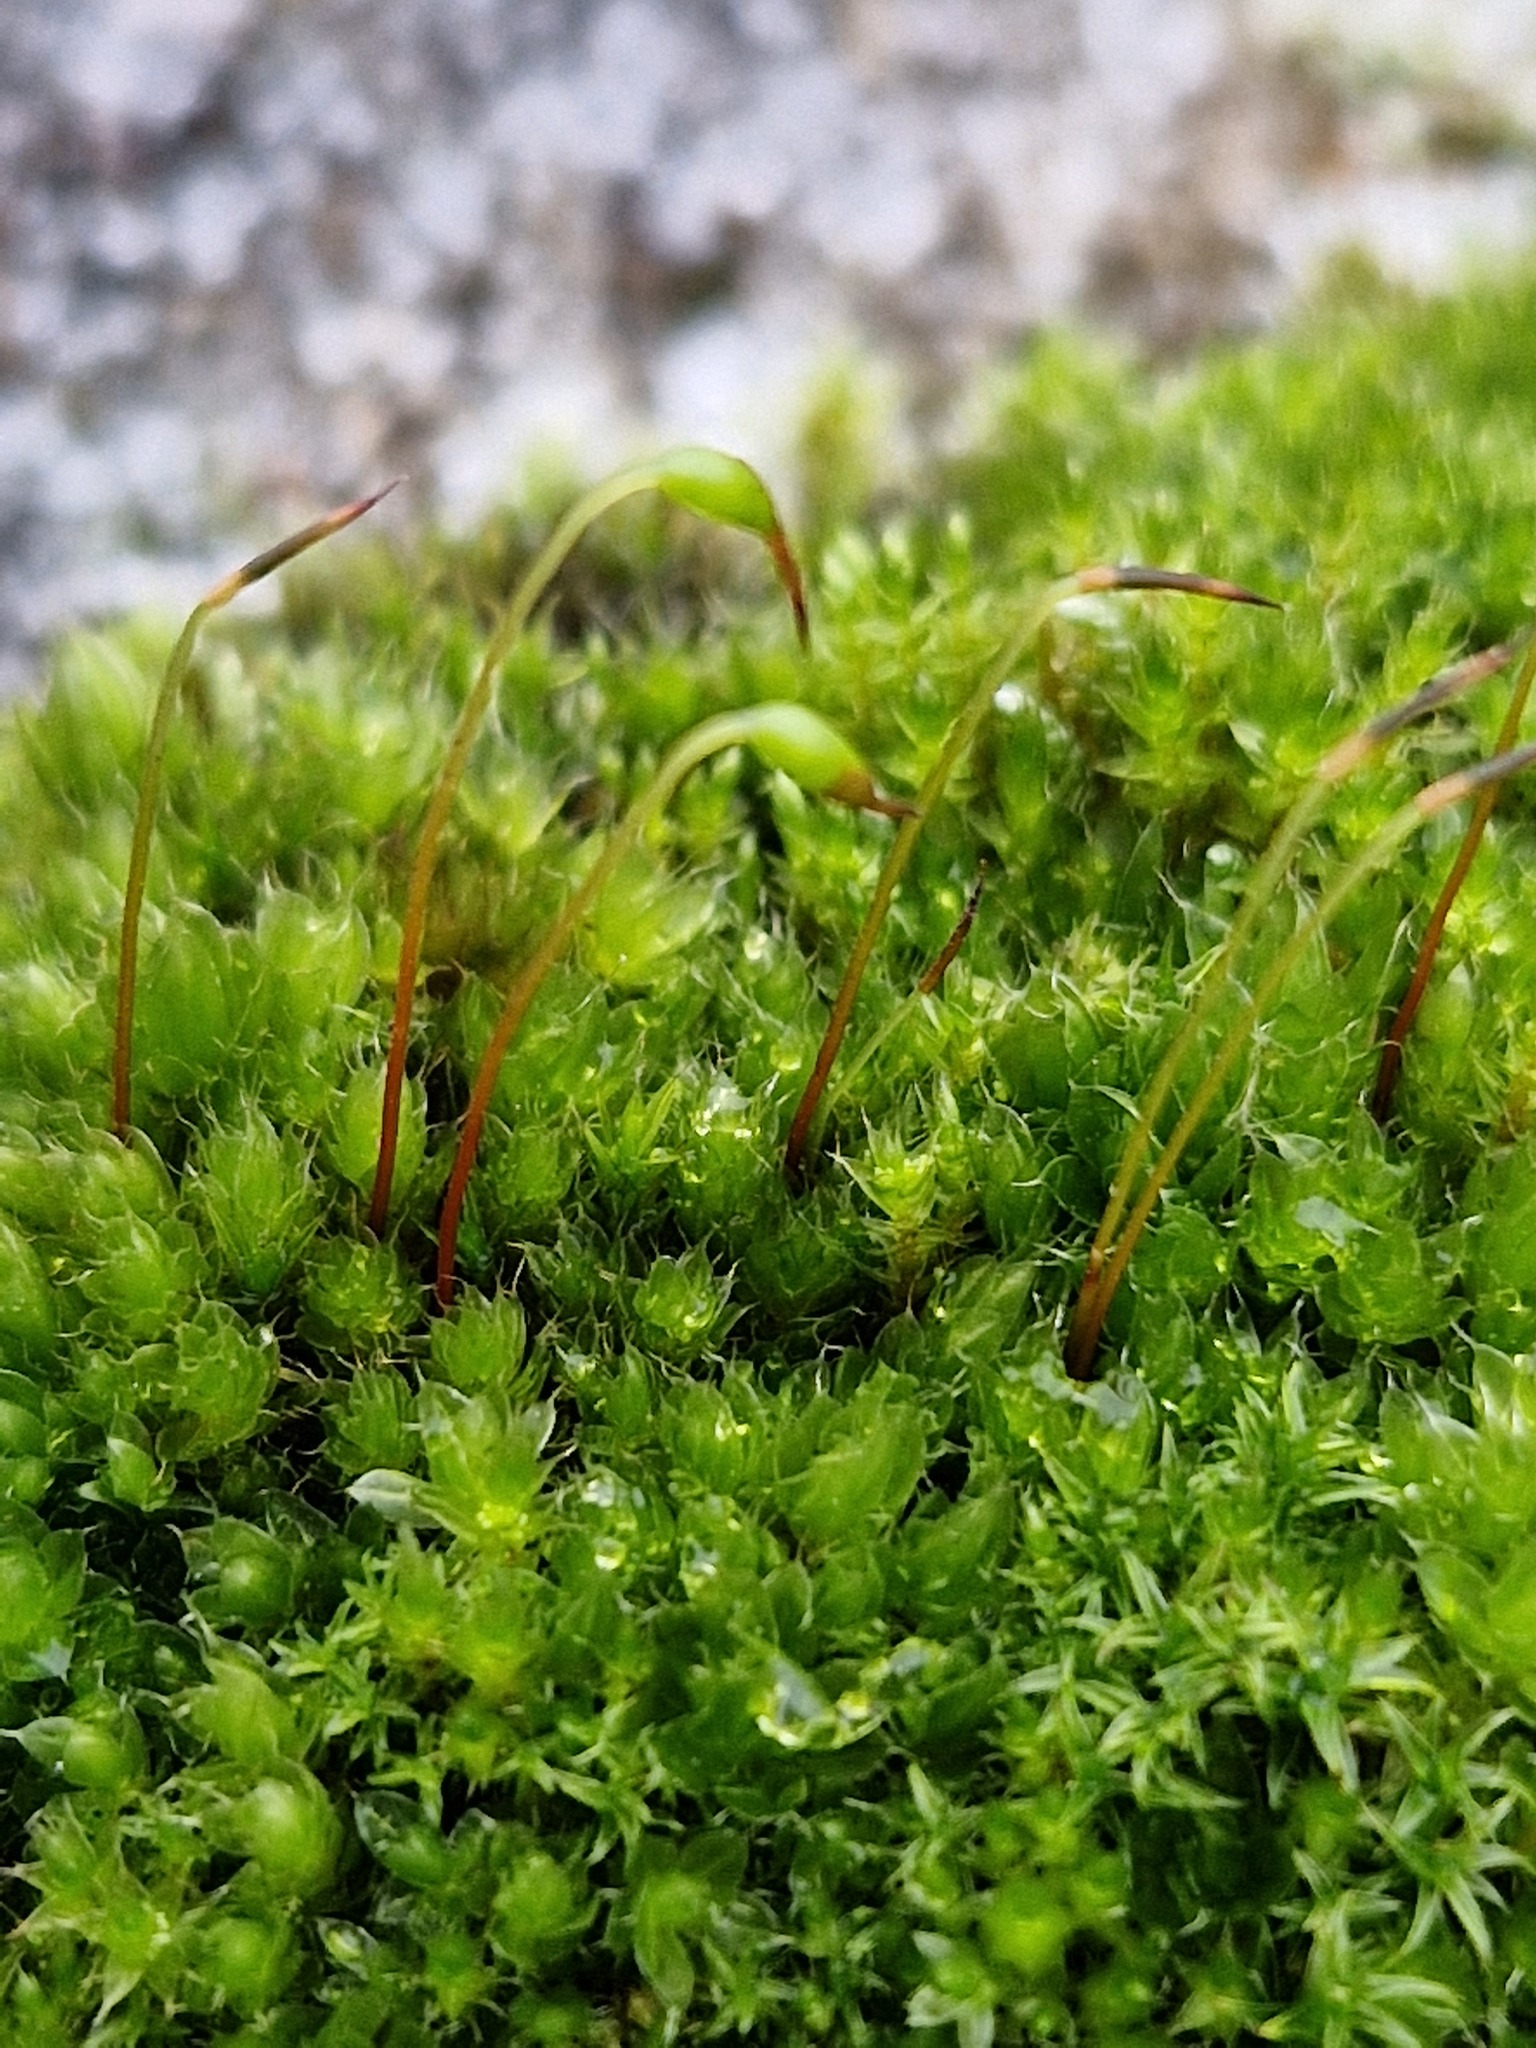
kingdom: Plantae
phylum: Bryophyta
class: Bryopsida
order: Bryales
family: Bryaceae
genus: Rosulabryum
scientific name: Rosulabryum capillare
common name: Capillary thread-moss
